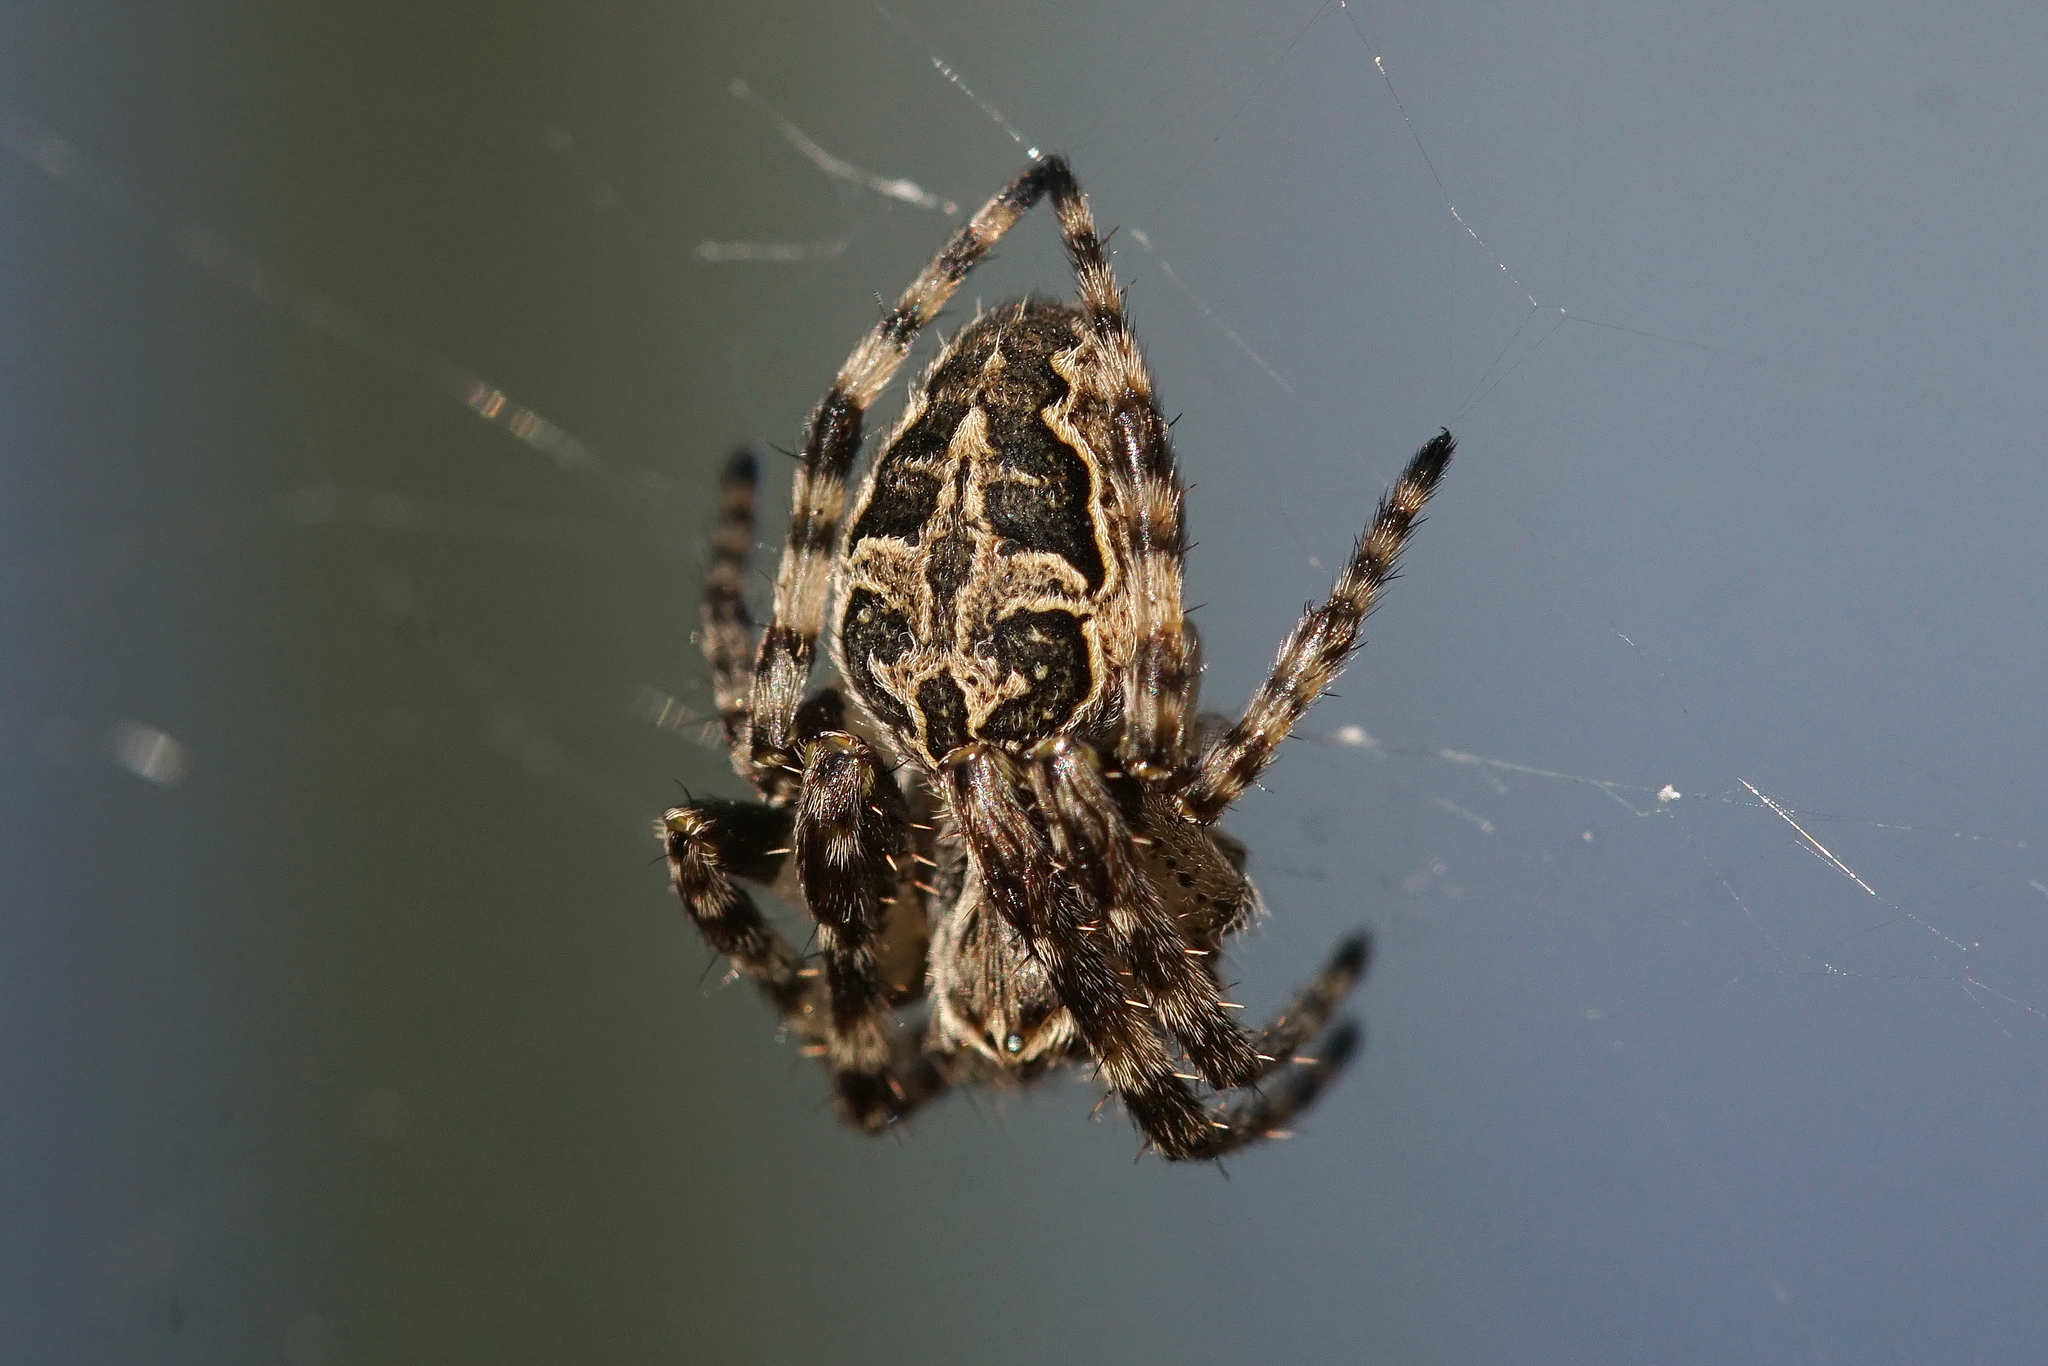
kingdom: Animalia
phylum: Arthropoda
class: Arachnida
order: Araneae
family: Araneidae
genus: Larinioides
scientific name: Larinioides sclopetarius
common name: Bridge orbweaver
